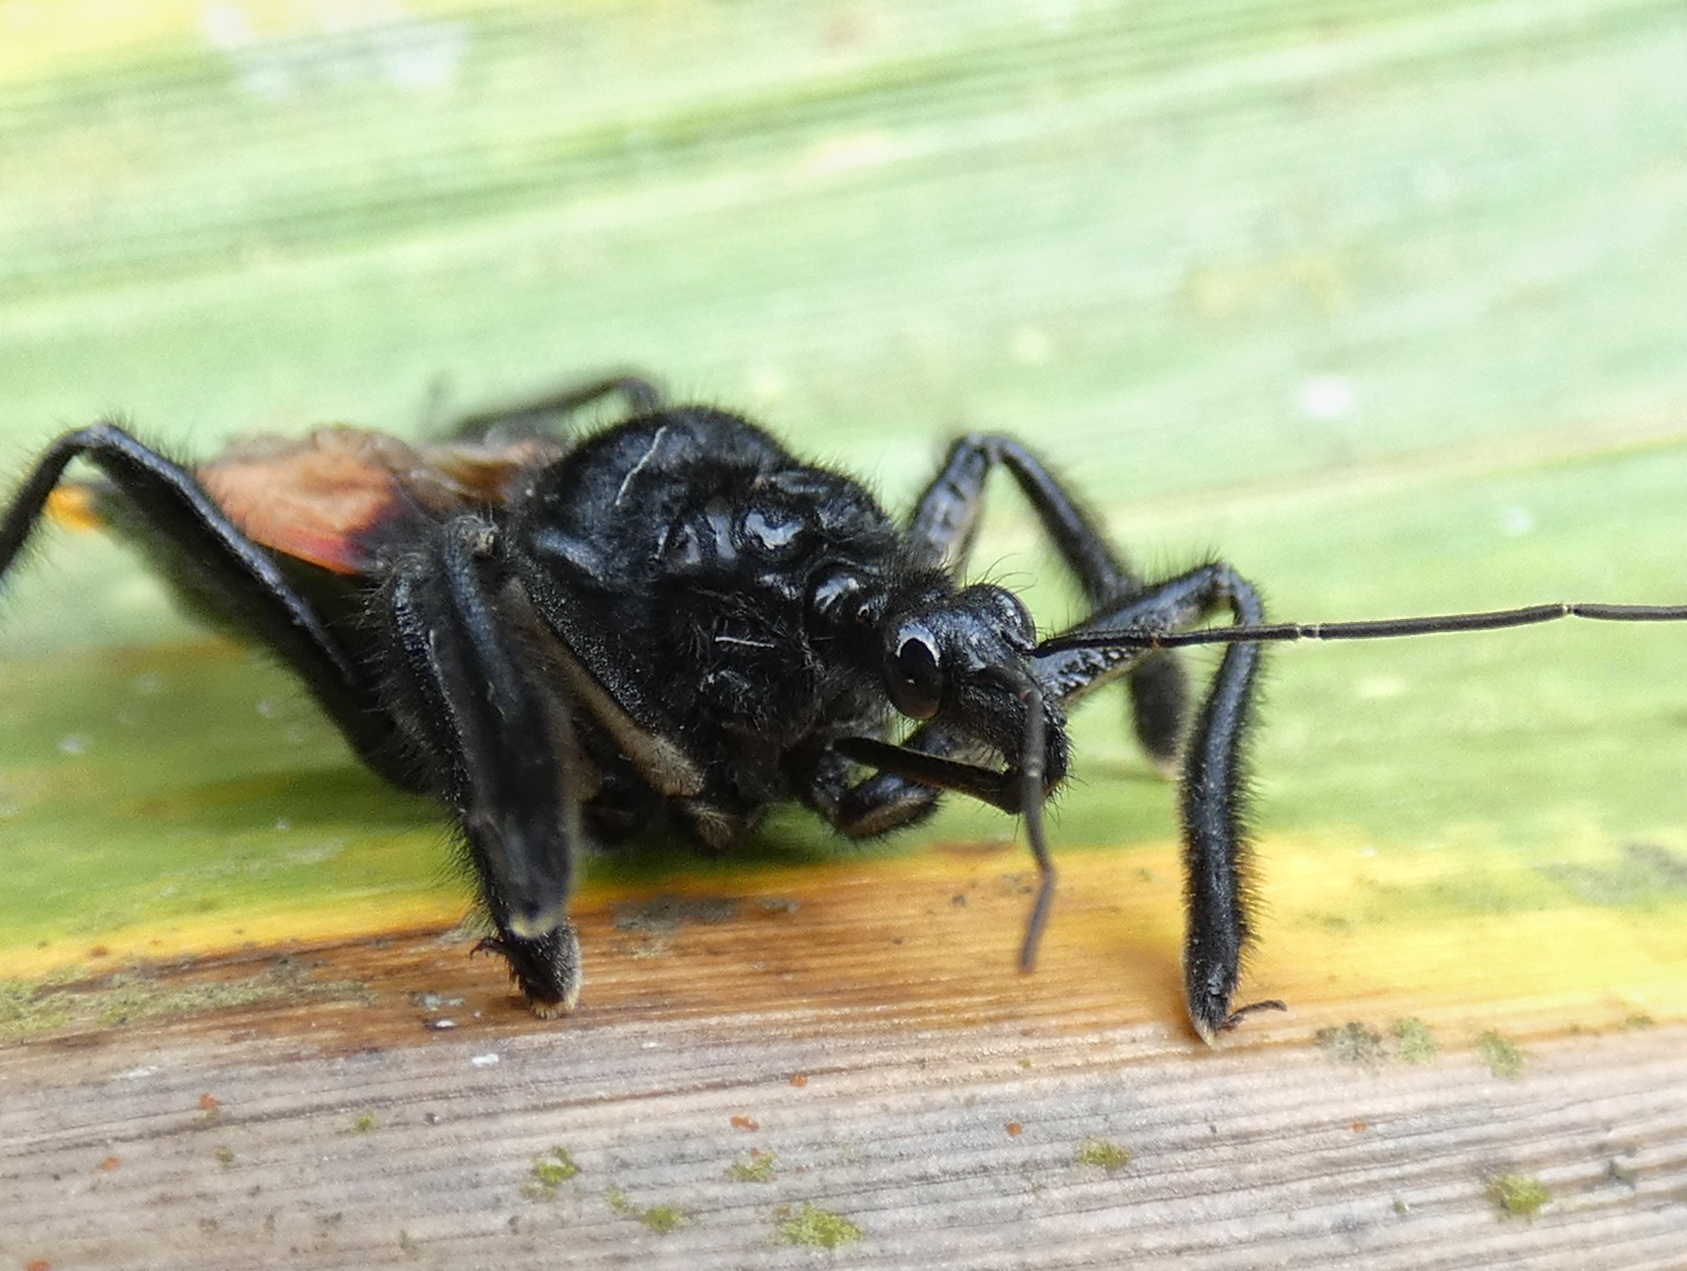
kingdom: Animalia
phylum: Arthropoda
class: Insecta
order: Hemiptera
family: Reduviidae
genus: Apiomerus
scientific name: Apiomerus gallegoi
